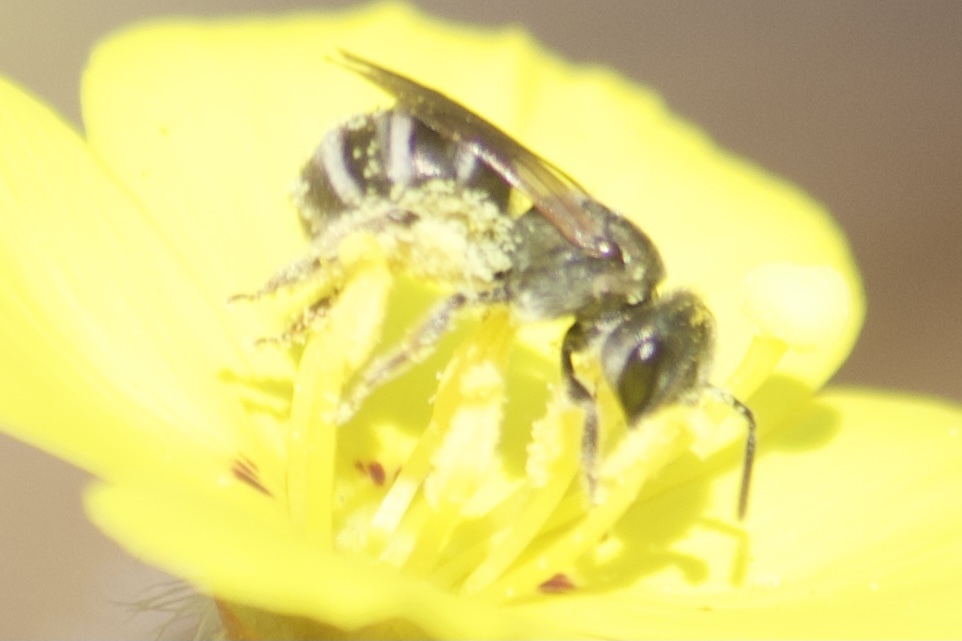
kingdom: Animalia
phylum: Arthropoda
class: Insecta
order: Hymenoptera
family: Halictidae
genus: Halictus
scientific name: Halictus tripartitus
